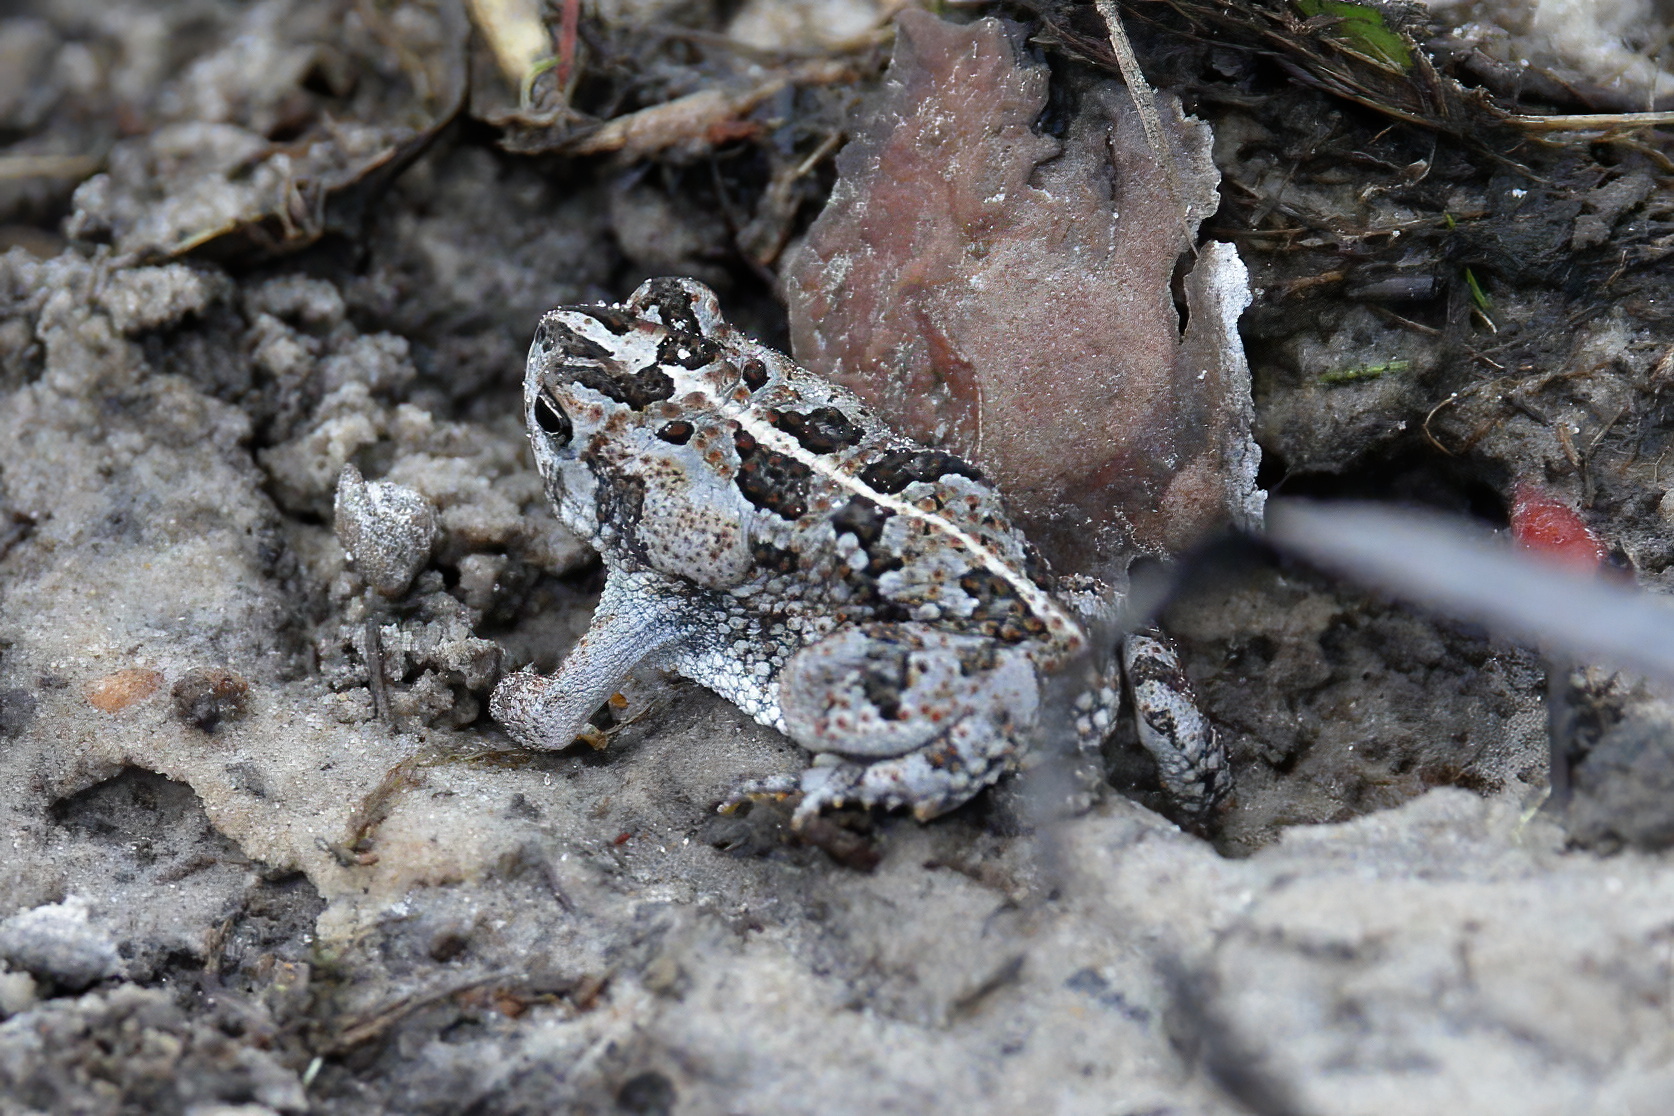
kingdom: Animalia
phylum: Chordata
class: Amphibia
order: Anura
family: Bufonidae
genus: Anaxyrus
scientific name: Anaxyrus quercicus
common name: Oak toad
